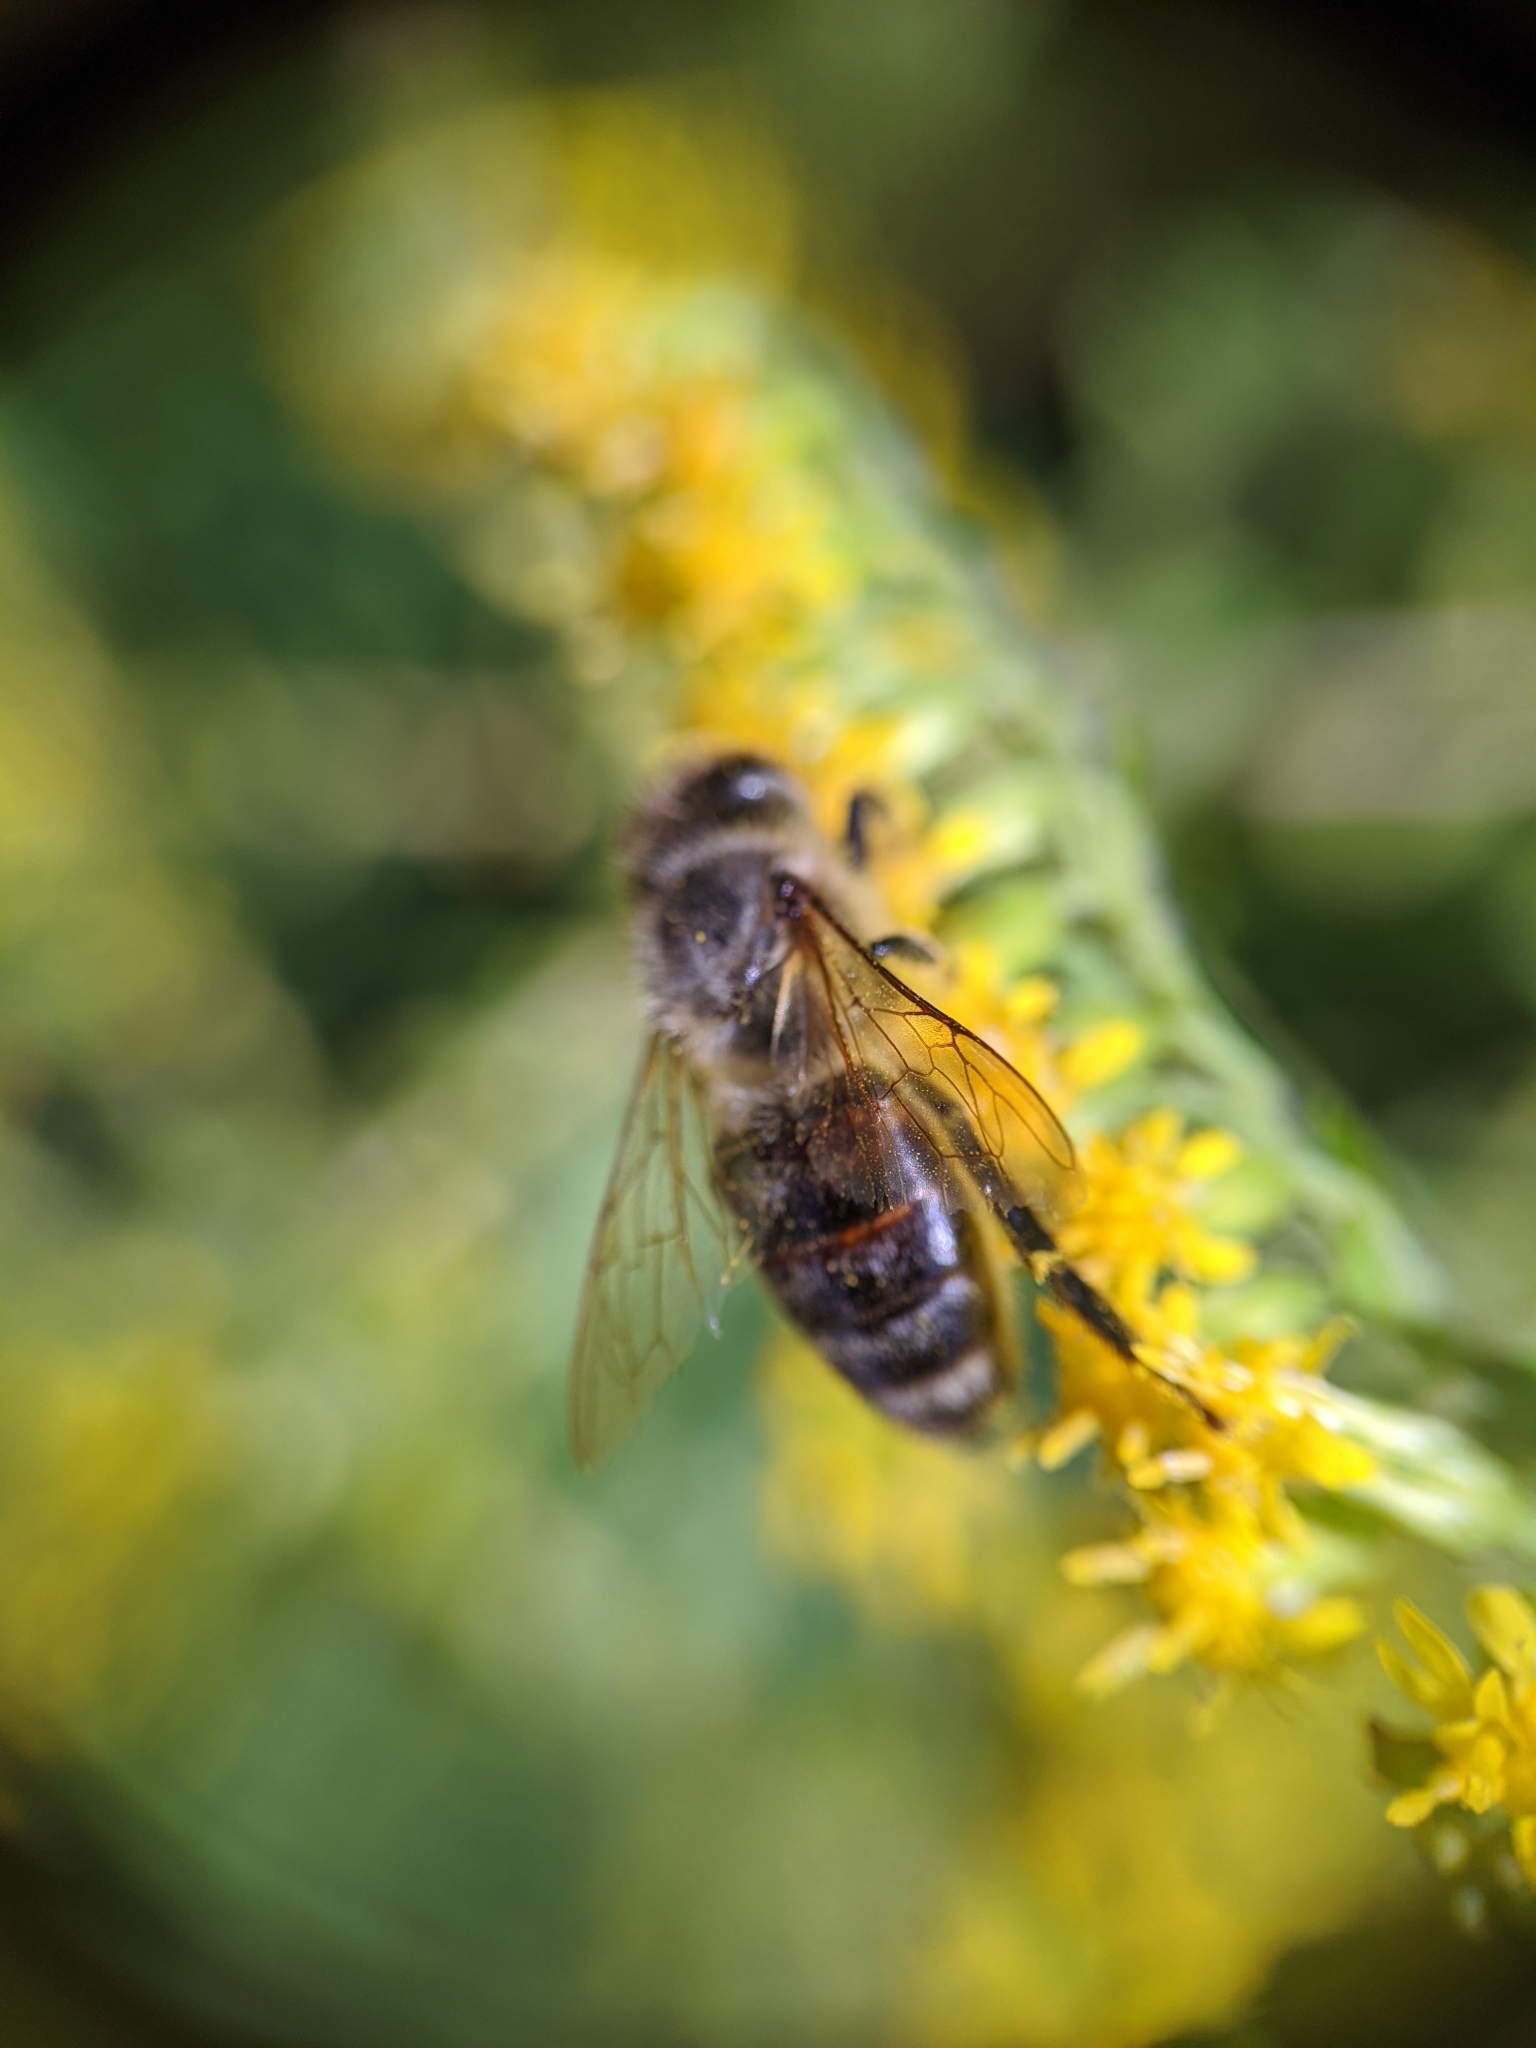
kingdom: Animalia
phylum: Arthropoda
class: Insecta
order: Hymenoptera
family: Apidae
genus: Apis
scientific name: Apis mellifera
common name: Honey bee
